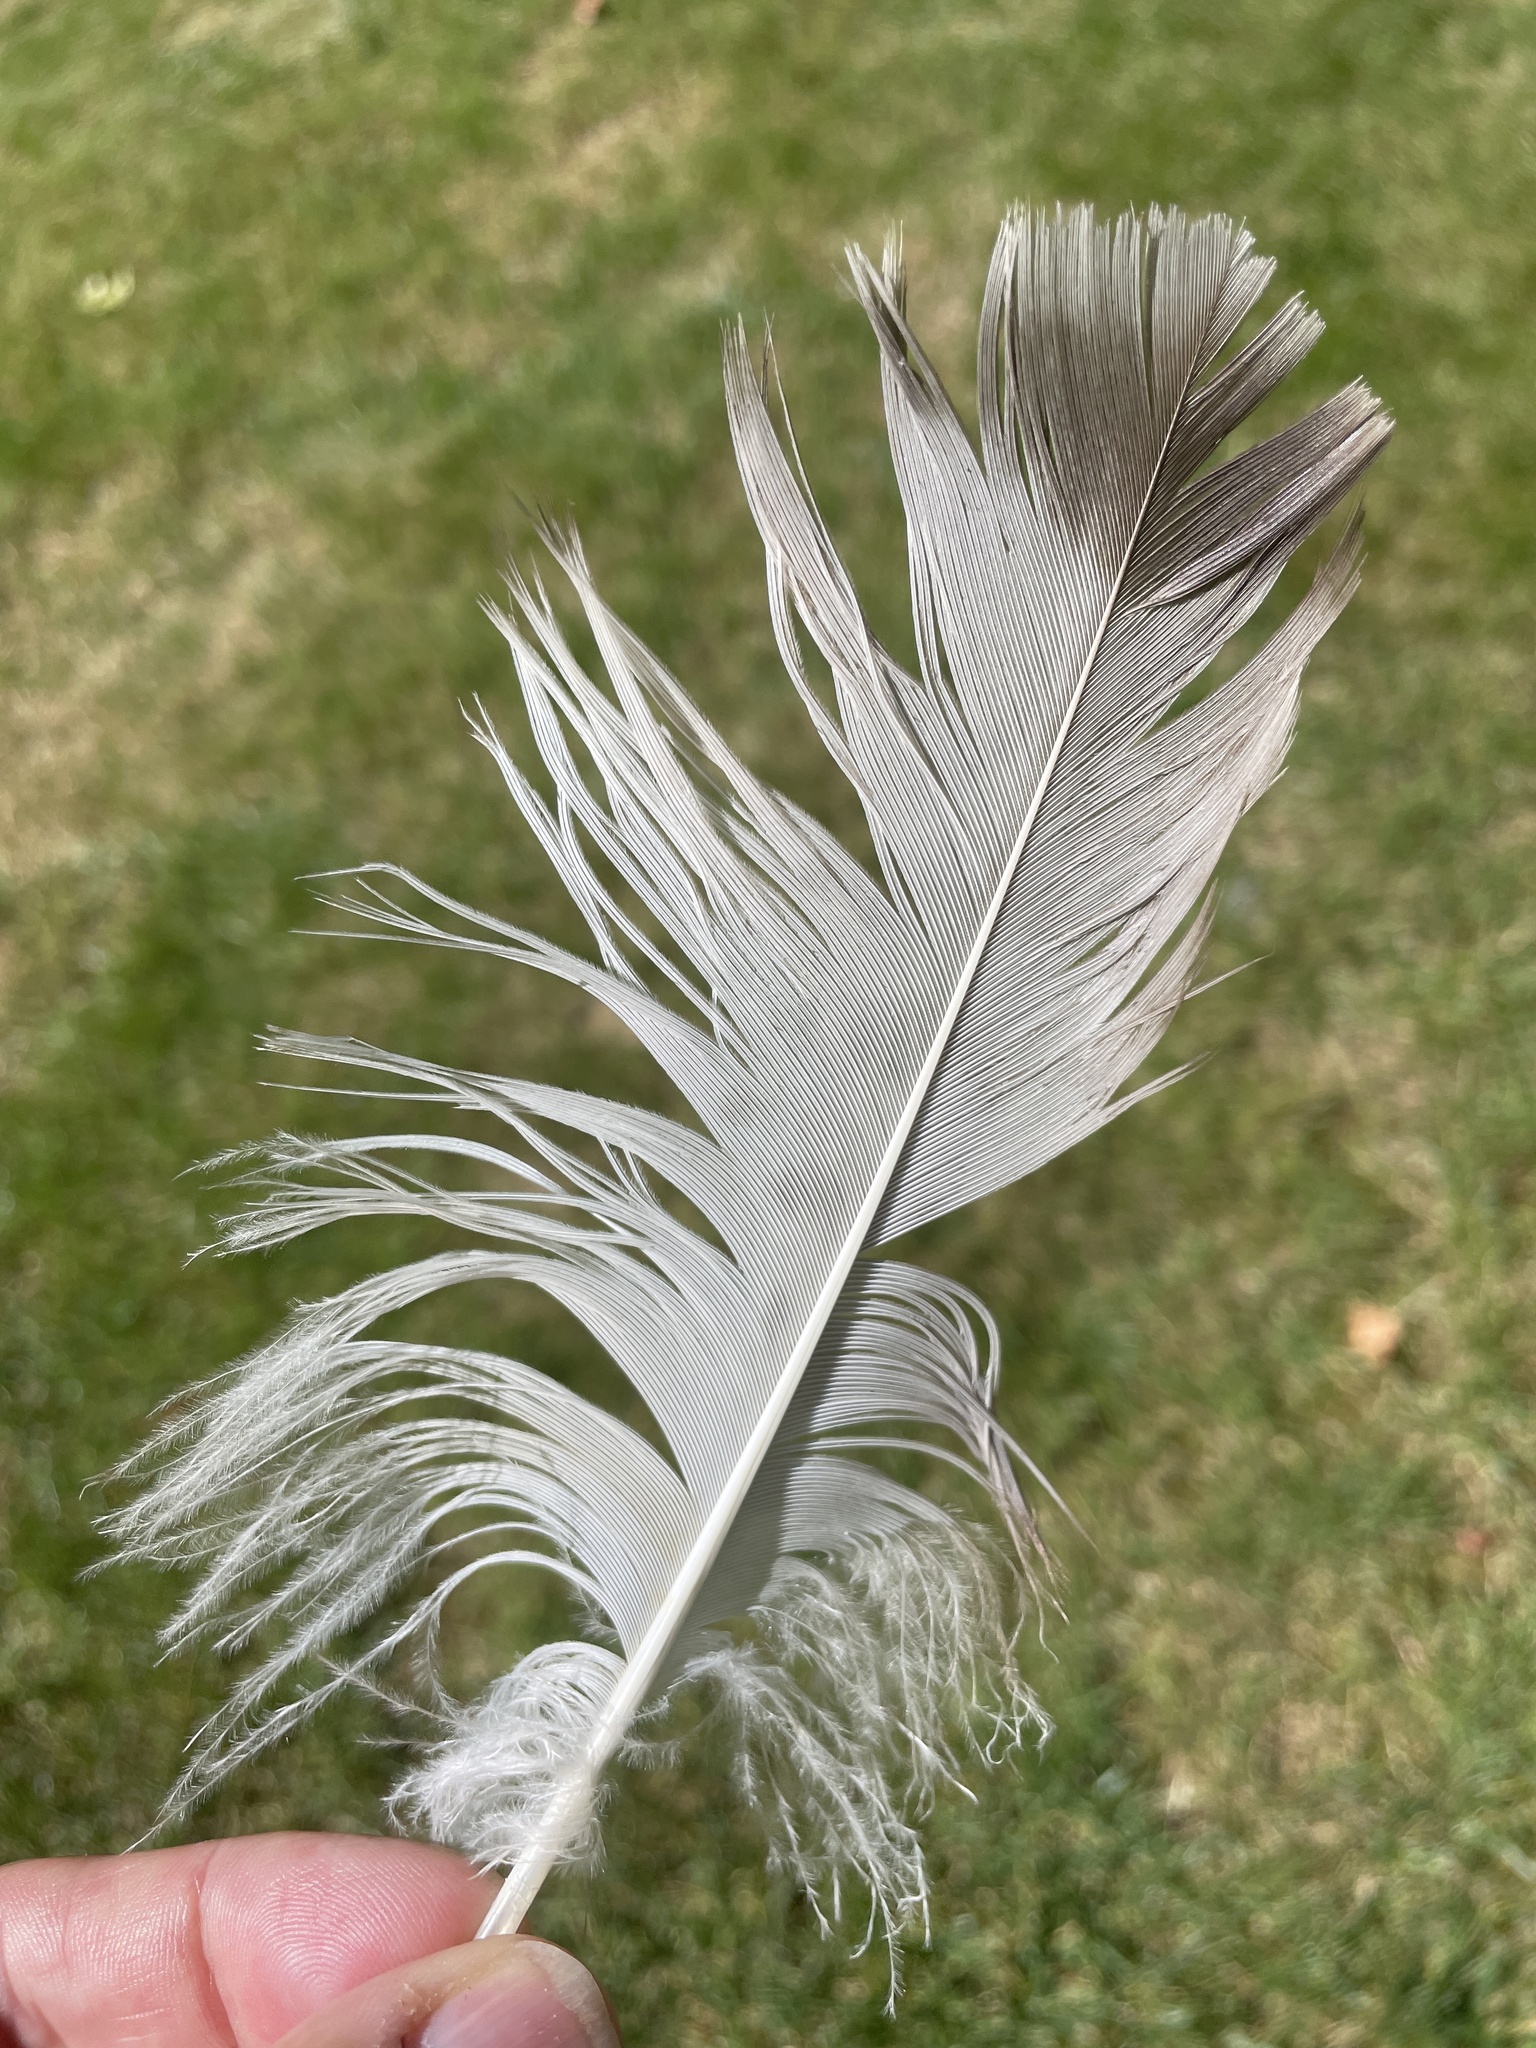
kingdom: Animalia
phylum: Chordata
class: Aves
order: Accipitriformes
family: Accipitridae
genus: Buteo
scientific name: Buteo jamaicensis
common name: Red-tailed hawk
